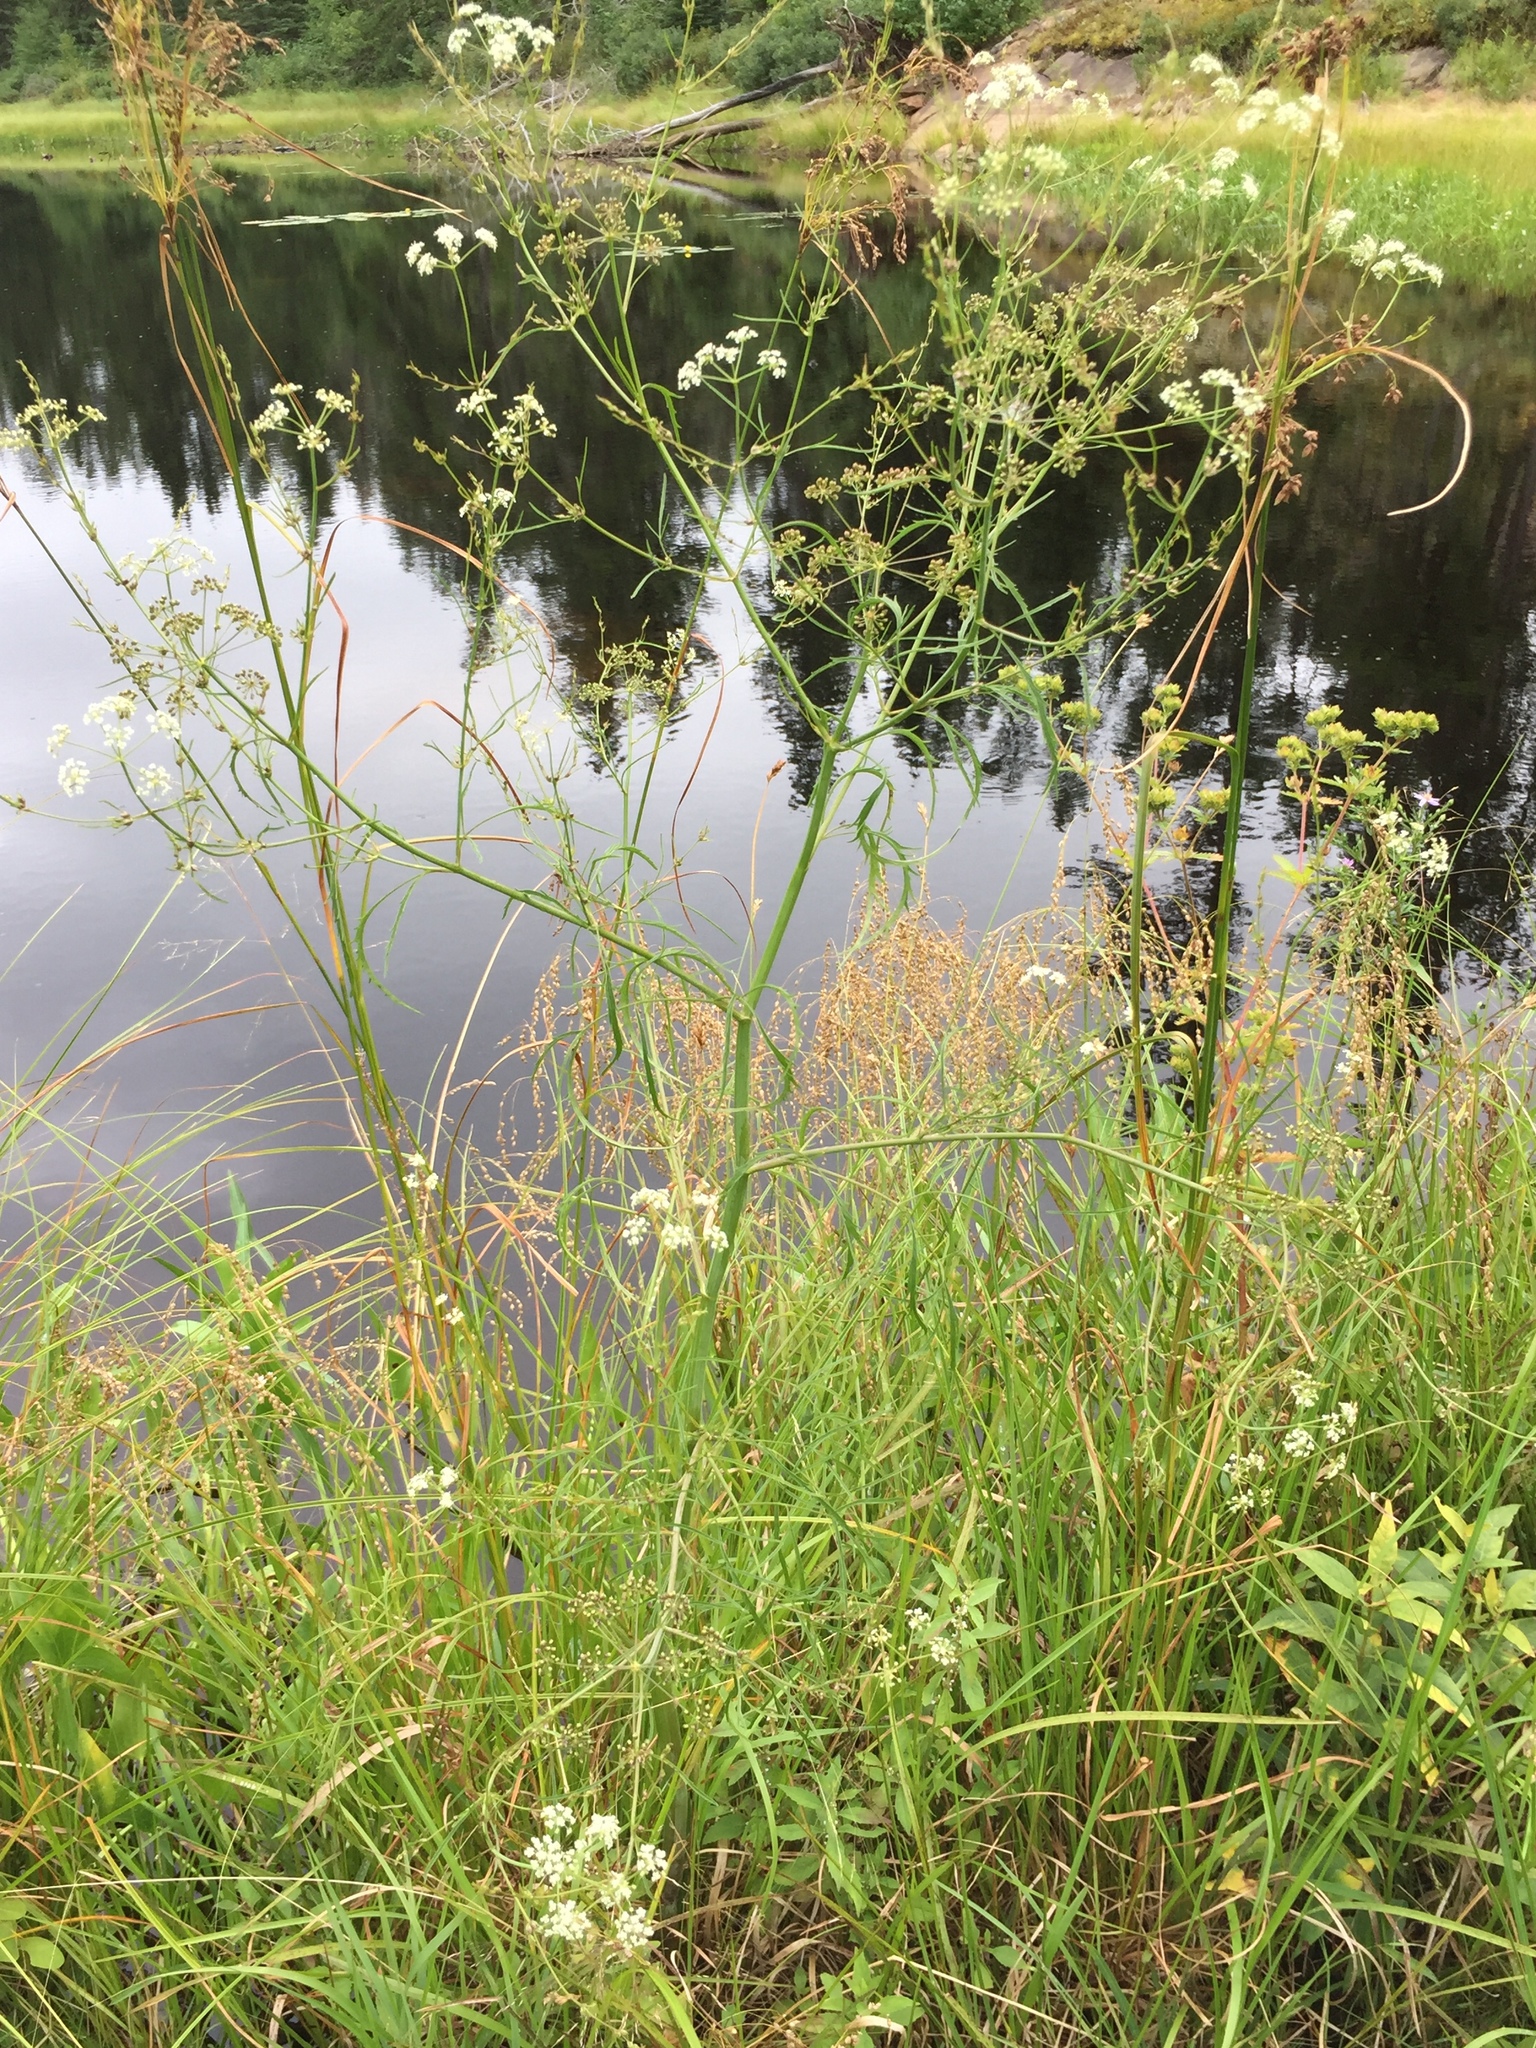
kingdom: Plantae
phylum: Tracheophyta
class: Magnoliopsida
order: Apiales
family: Apiaceae
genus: Cicuta
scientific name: Cicuta bulbifera
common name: Bulb-bearing water-hemlock
